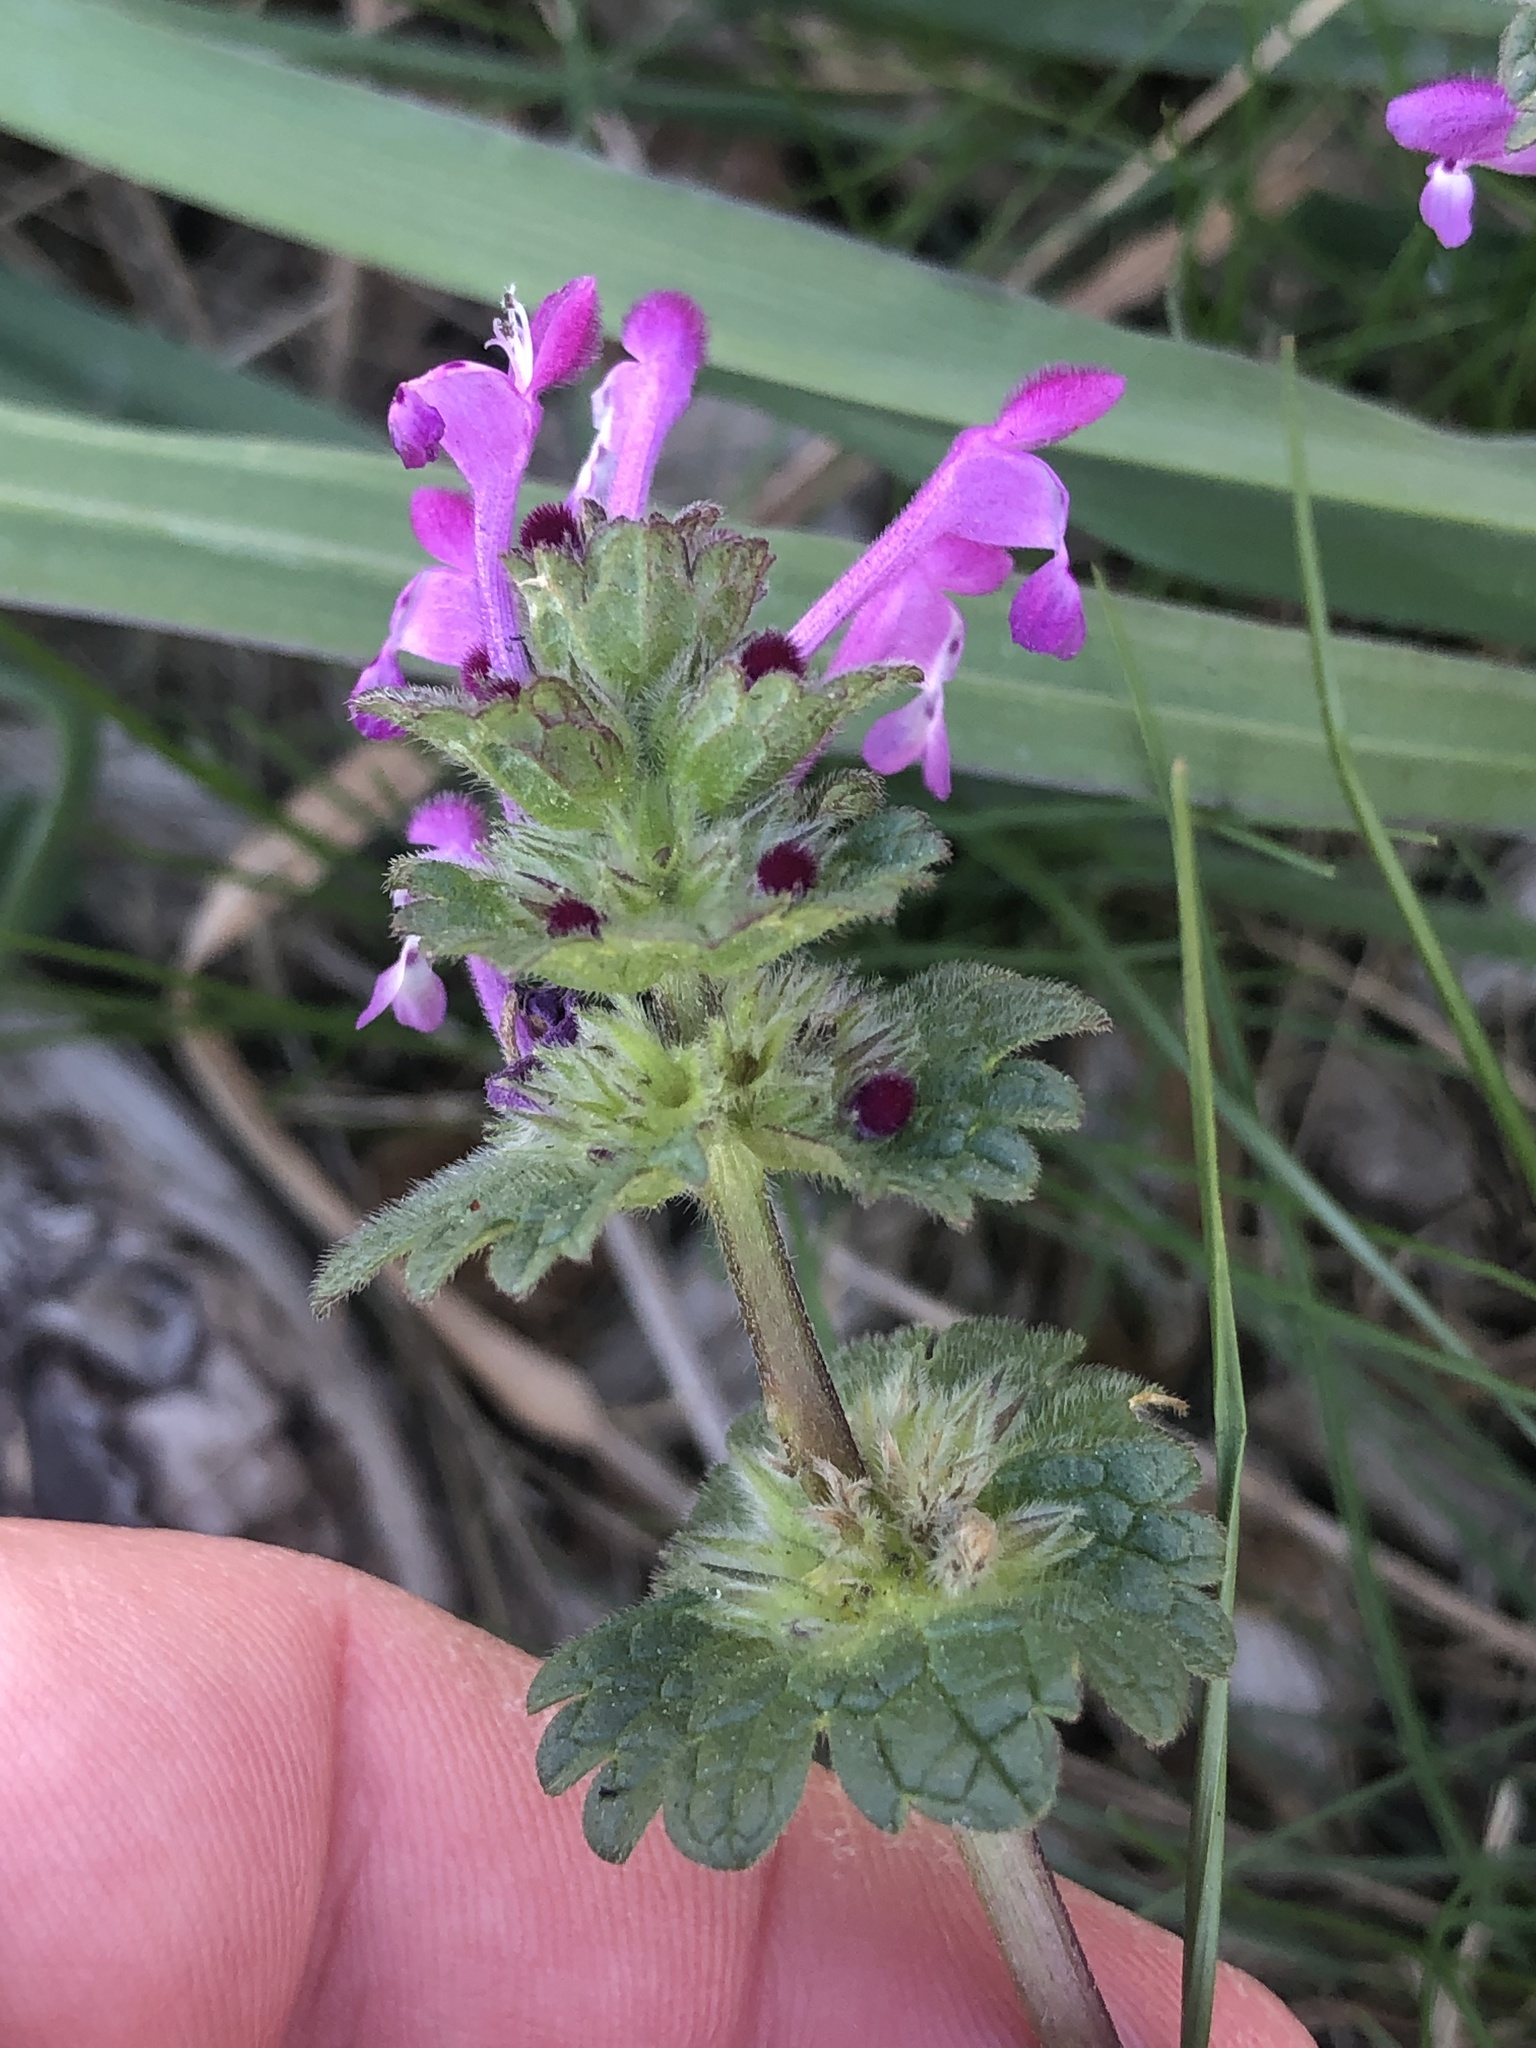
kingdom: Plantae
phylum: Tracheophyta
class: Magnoliopsida
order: Lamiales
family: Lamiaceae
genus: Lamium
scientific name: Lamium amplexicaule
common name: Henbit dead-nettle
